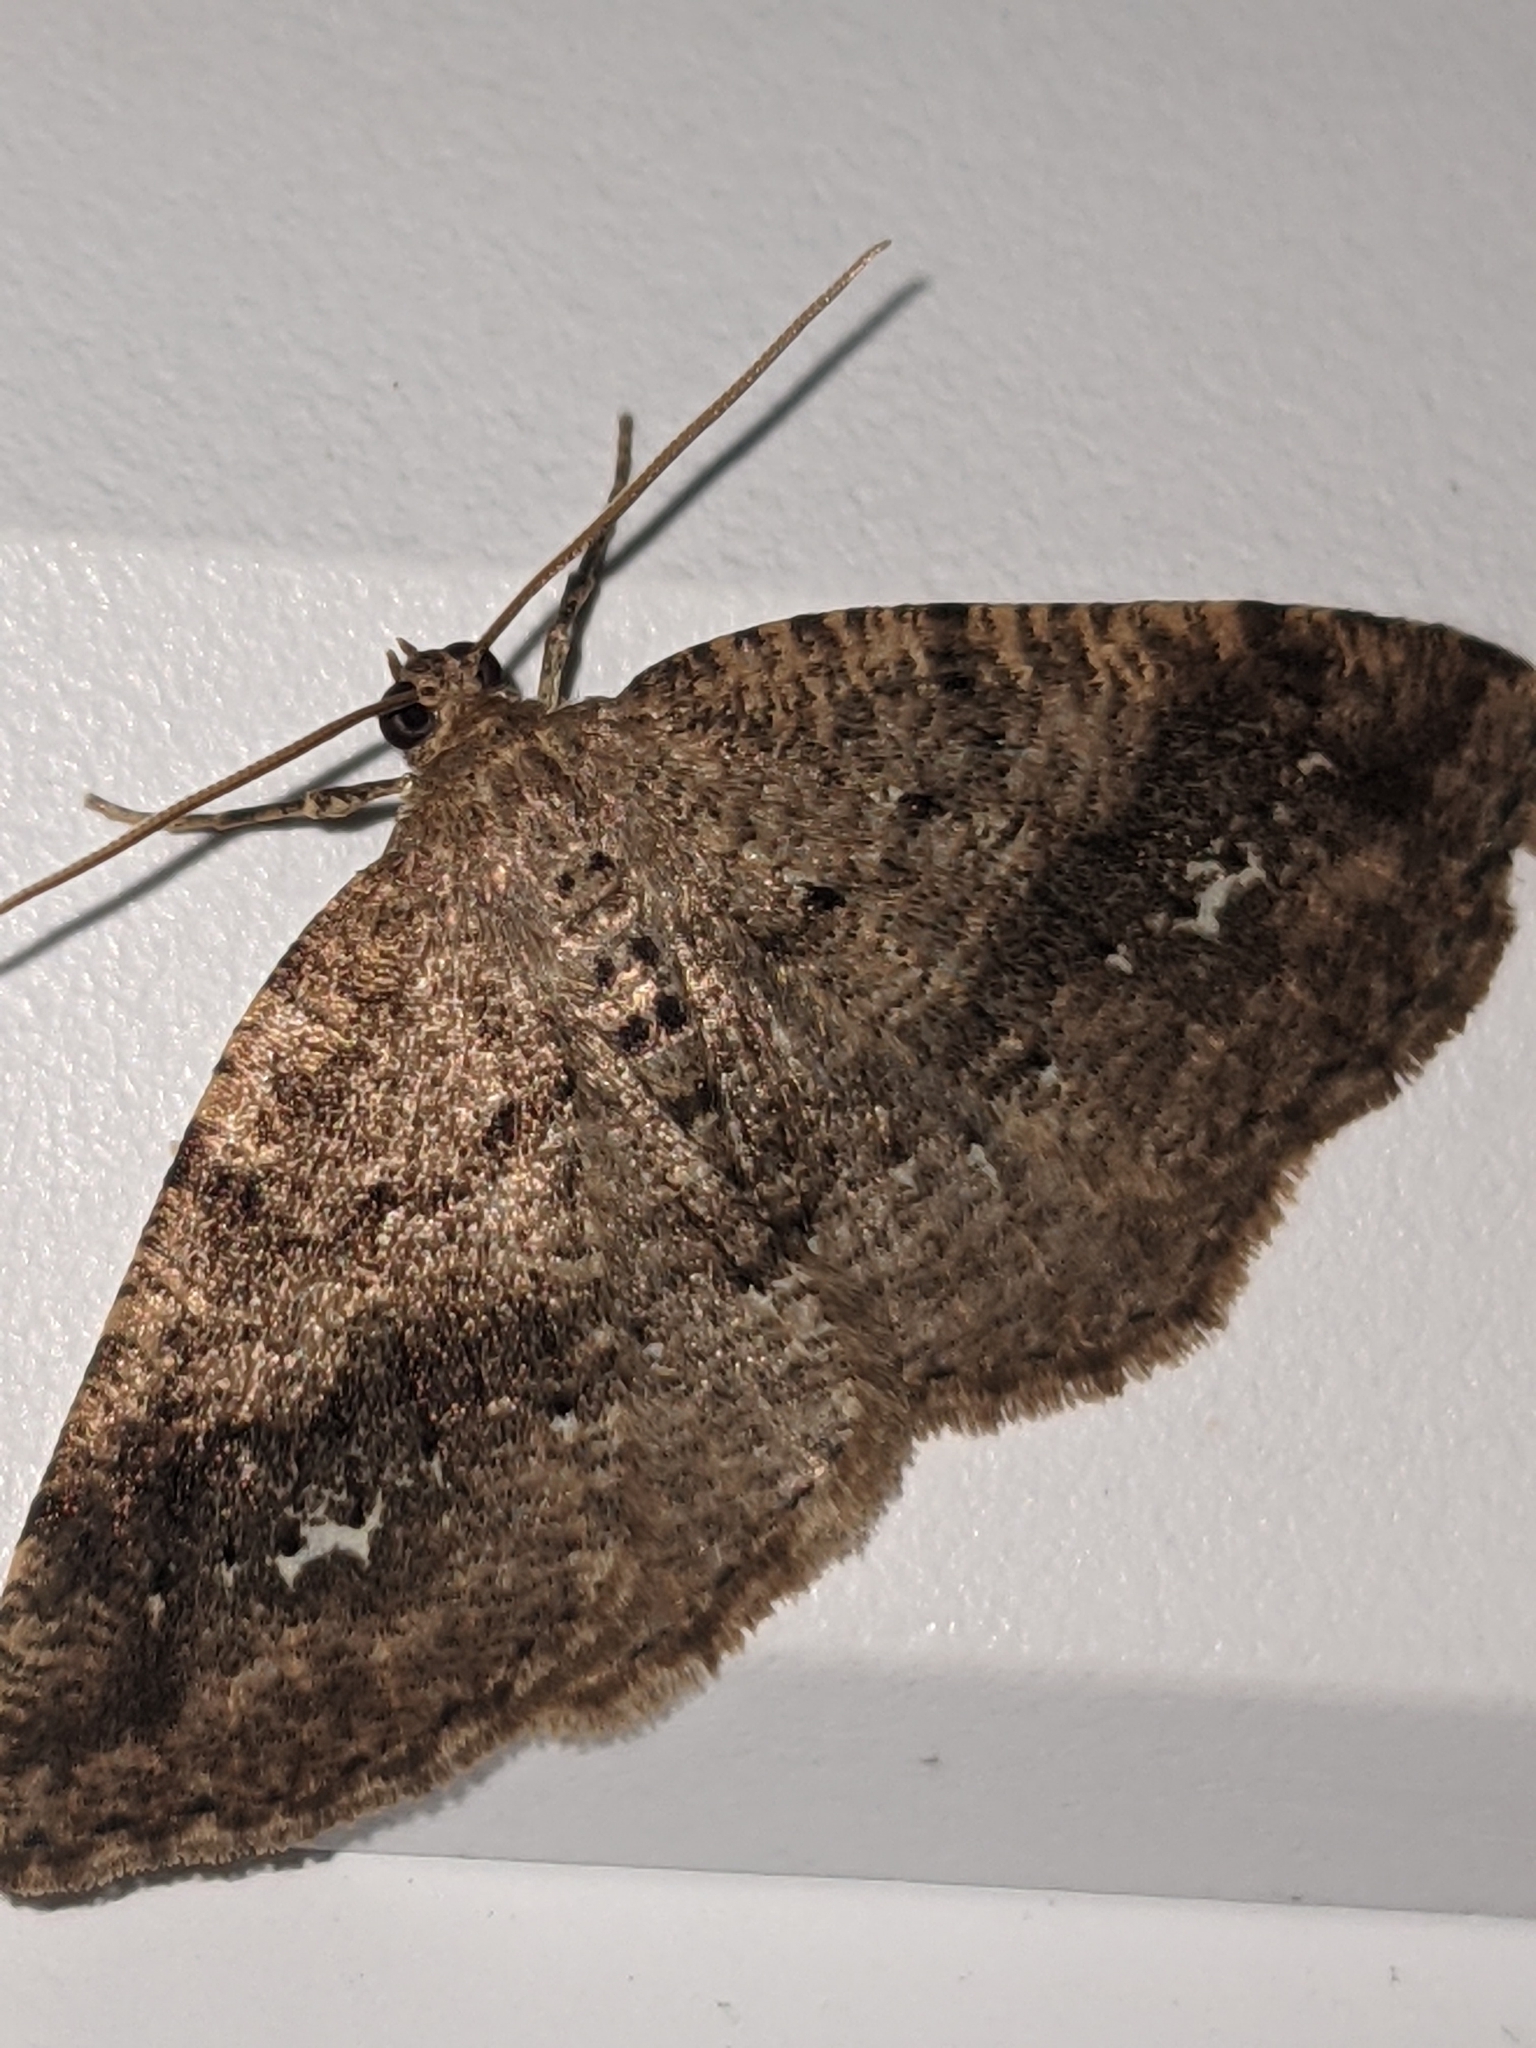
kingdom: Animalia
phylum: Arthropoda
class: Insecta
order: Lepidoptera
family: Geometridae
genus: Homochlodes
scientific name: Homochlodes fritillaria
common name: Pale homochlodes
